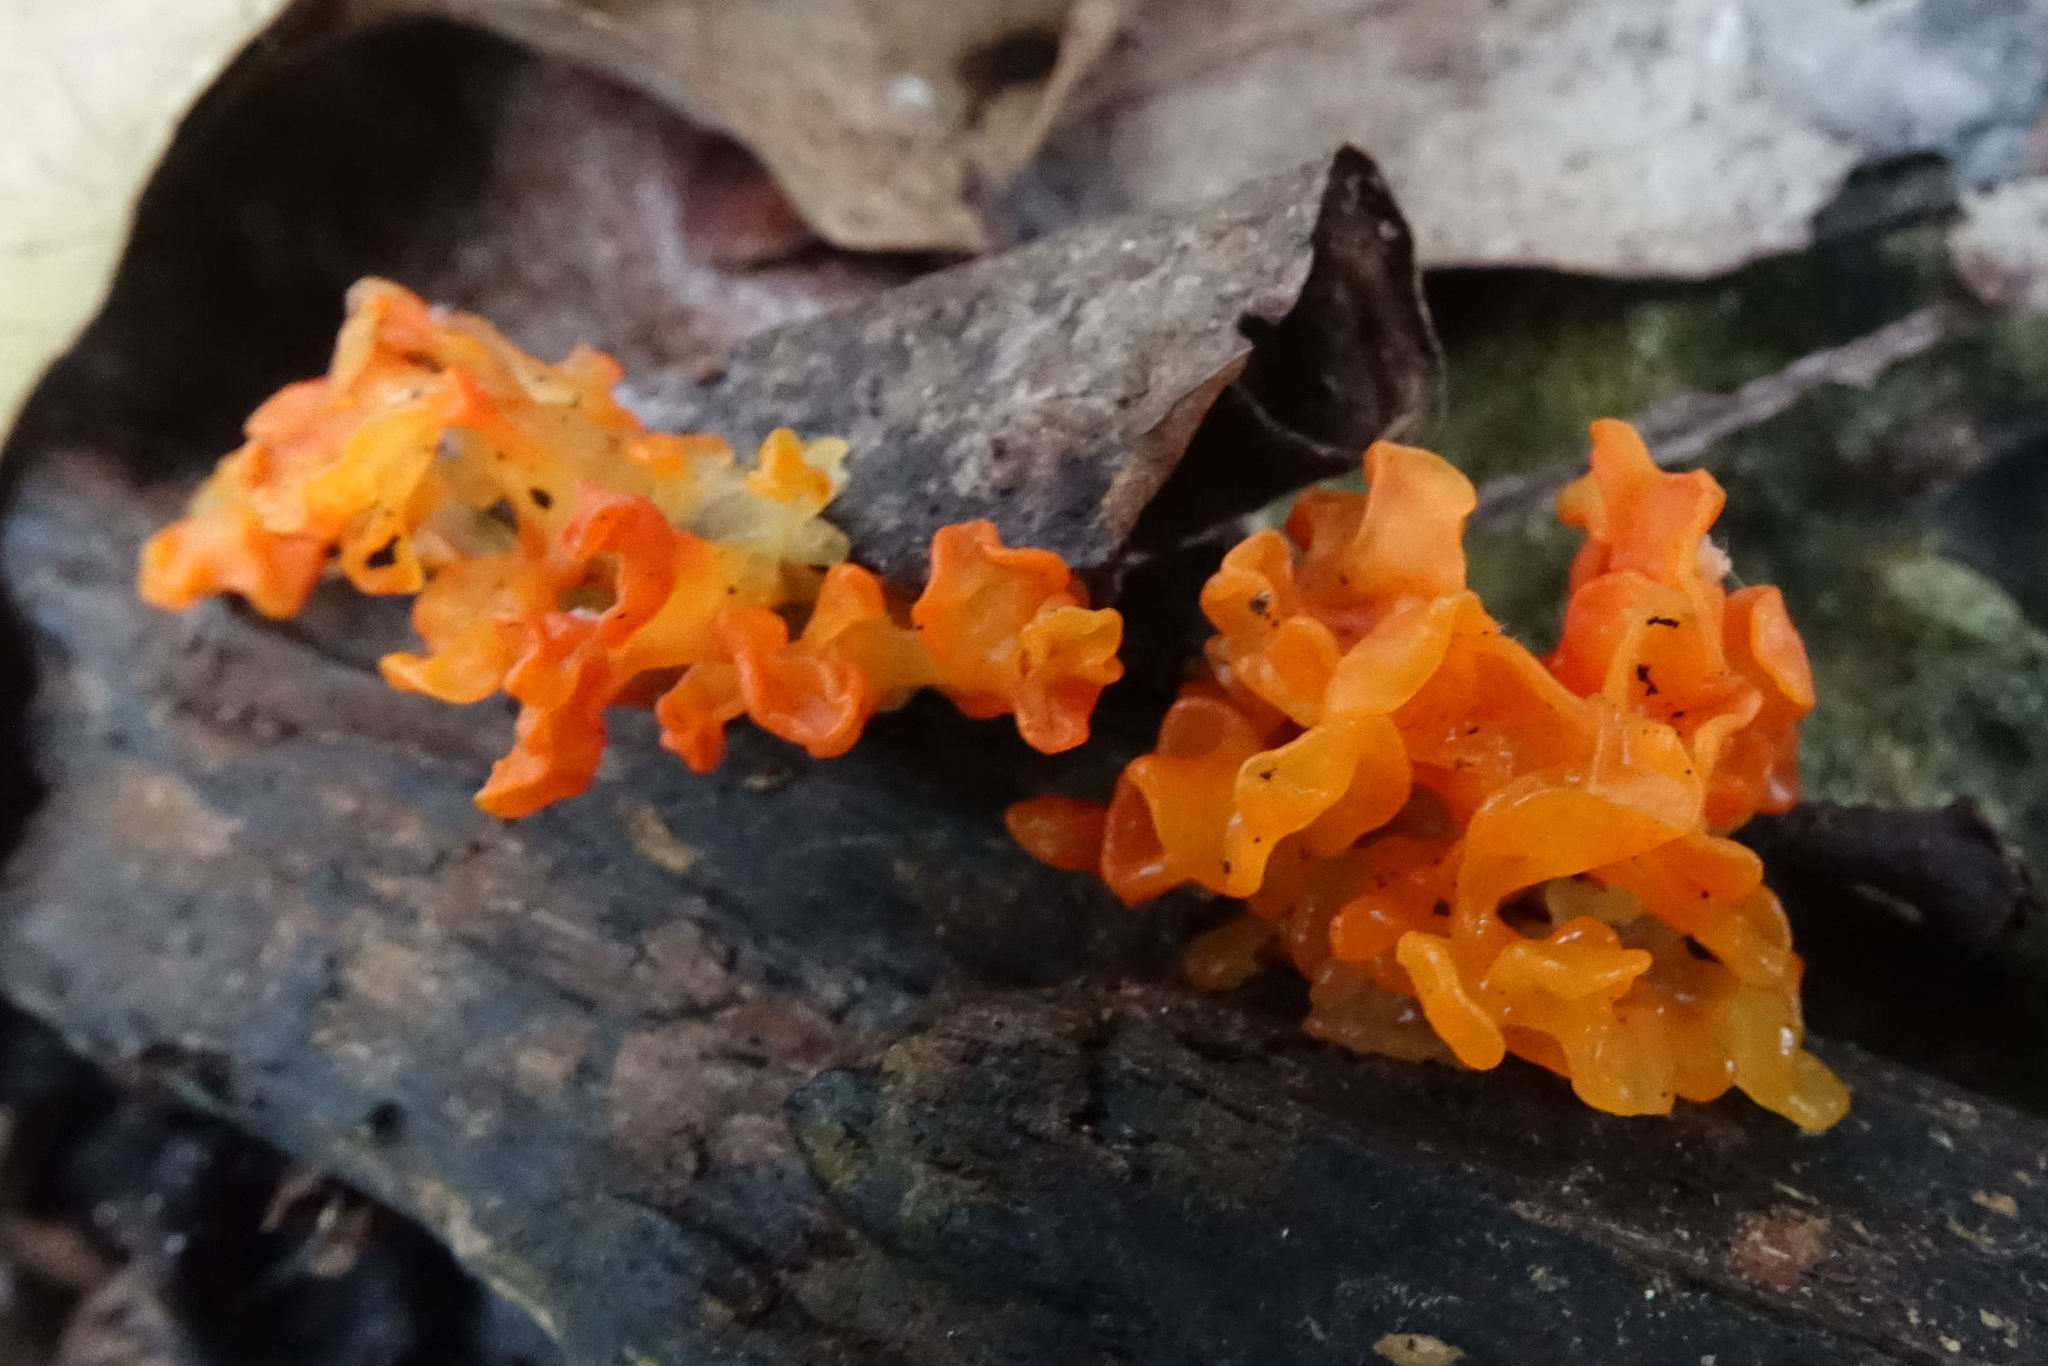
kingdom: Fungi
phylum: Basidiomycota
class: Tremellomycetes
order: Tremellales
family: Tremellaceae
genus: Tremella
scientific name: Tremella samoensis
